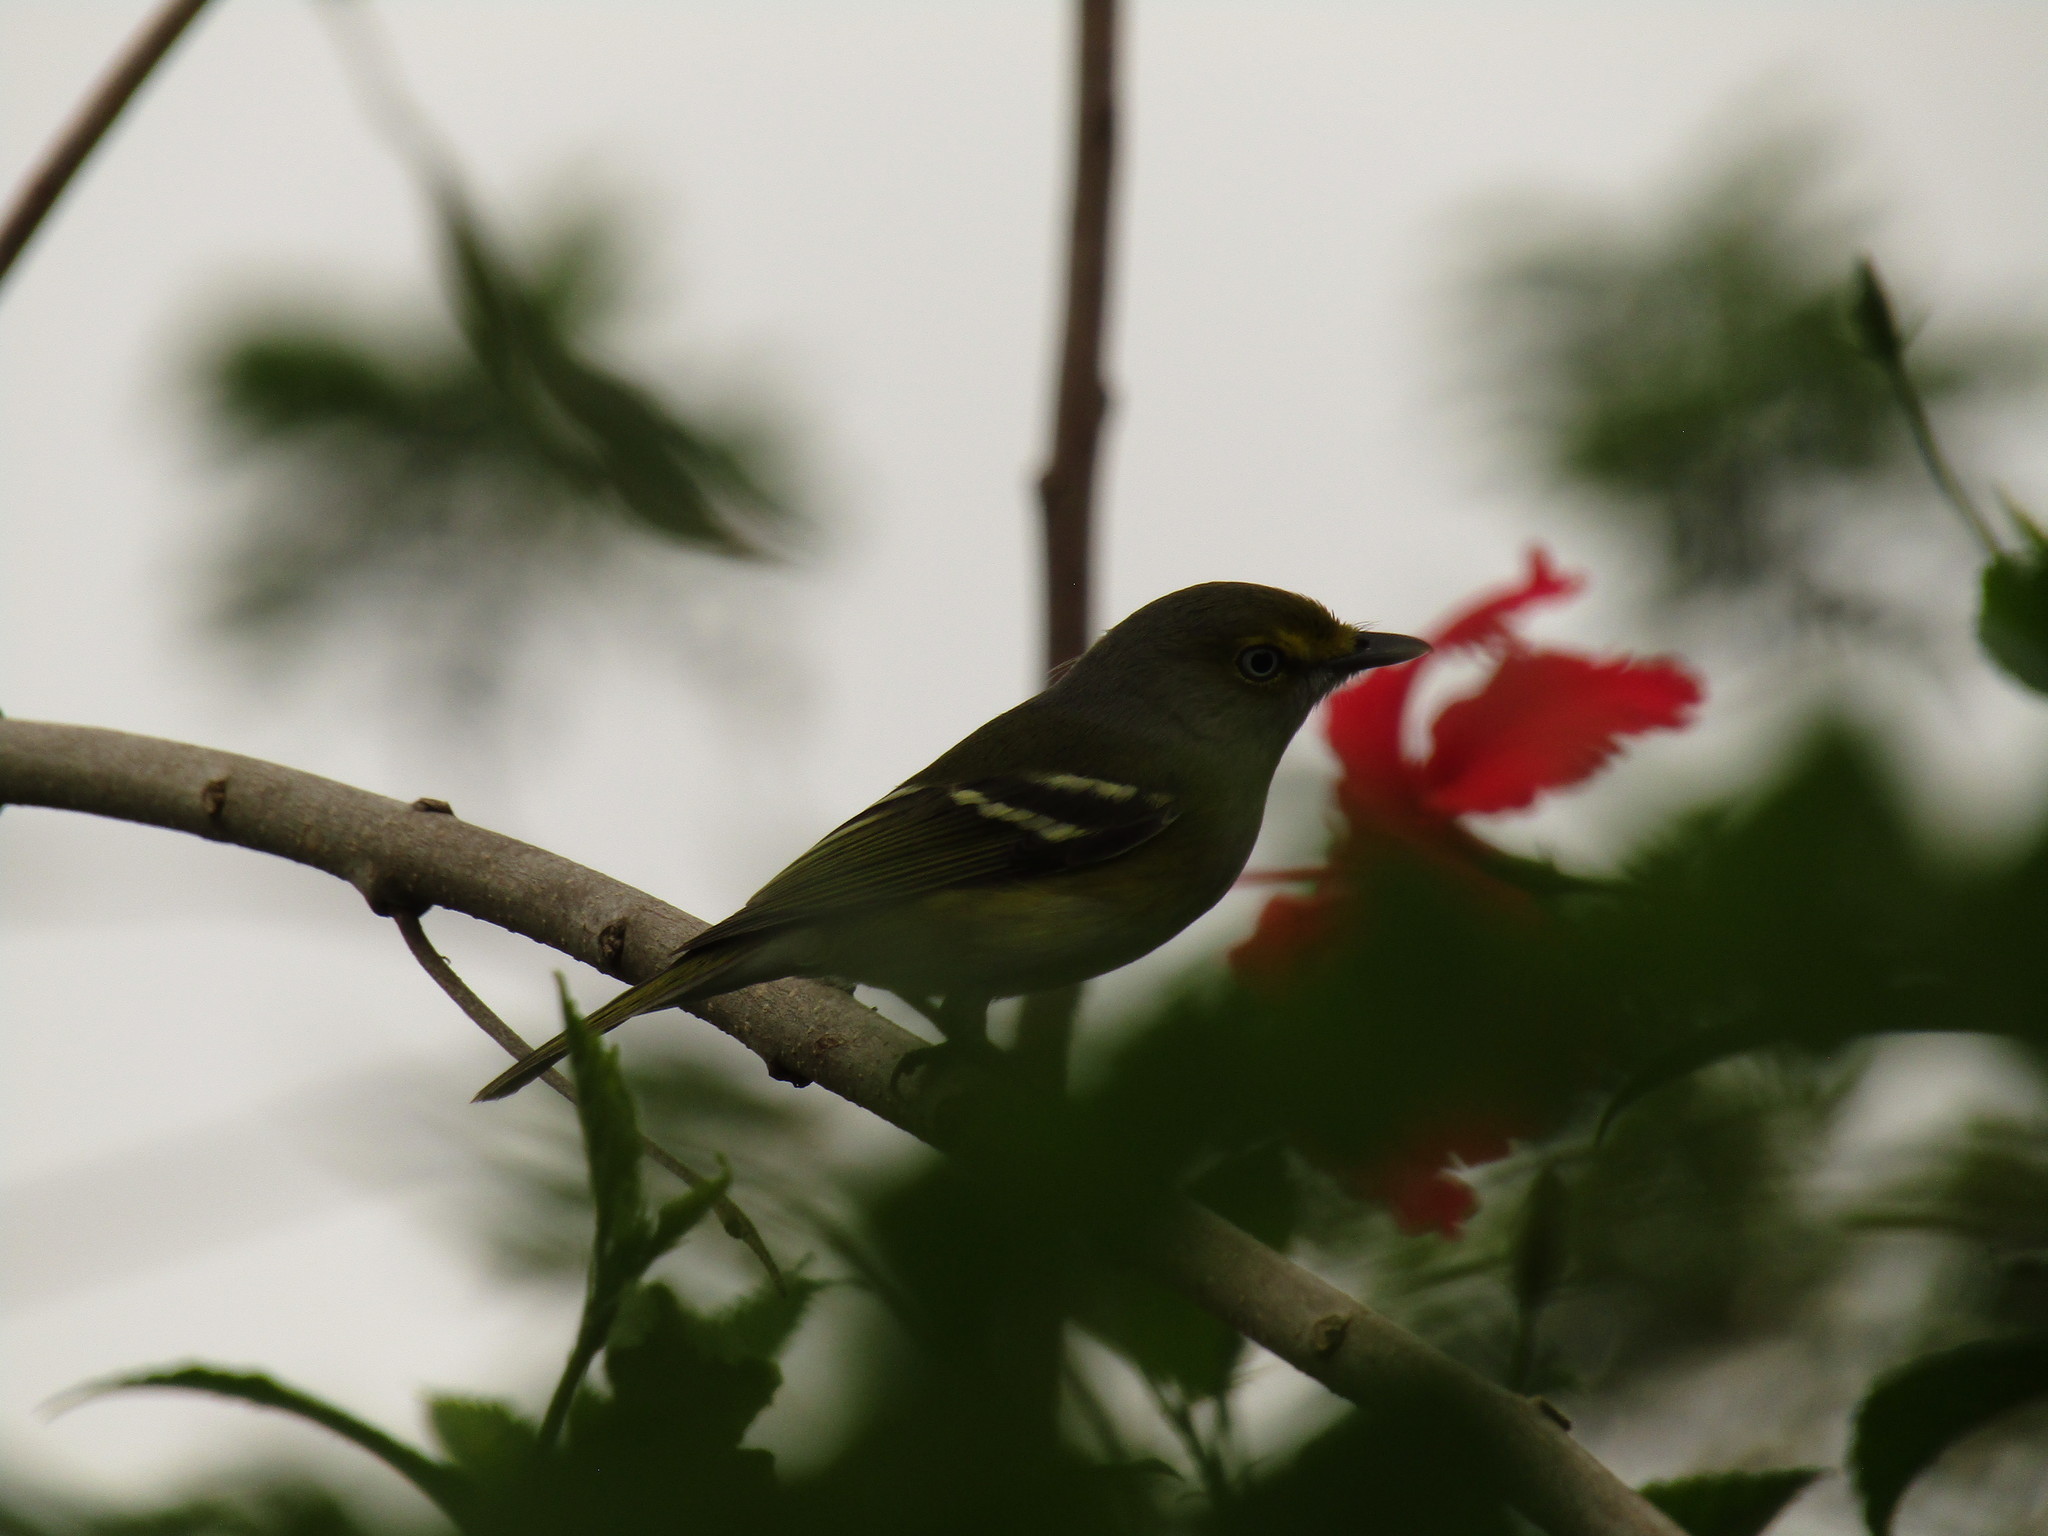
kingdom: Animalia
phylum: Chordata
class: Aves
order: Passeriformes
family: Vireonidae
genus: Vireo
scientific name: Vireo griseus
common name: White-eyed vireo
